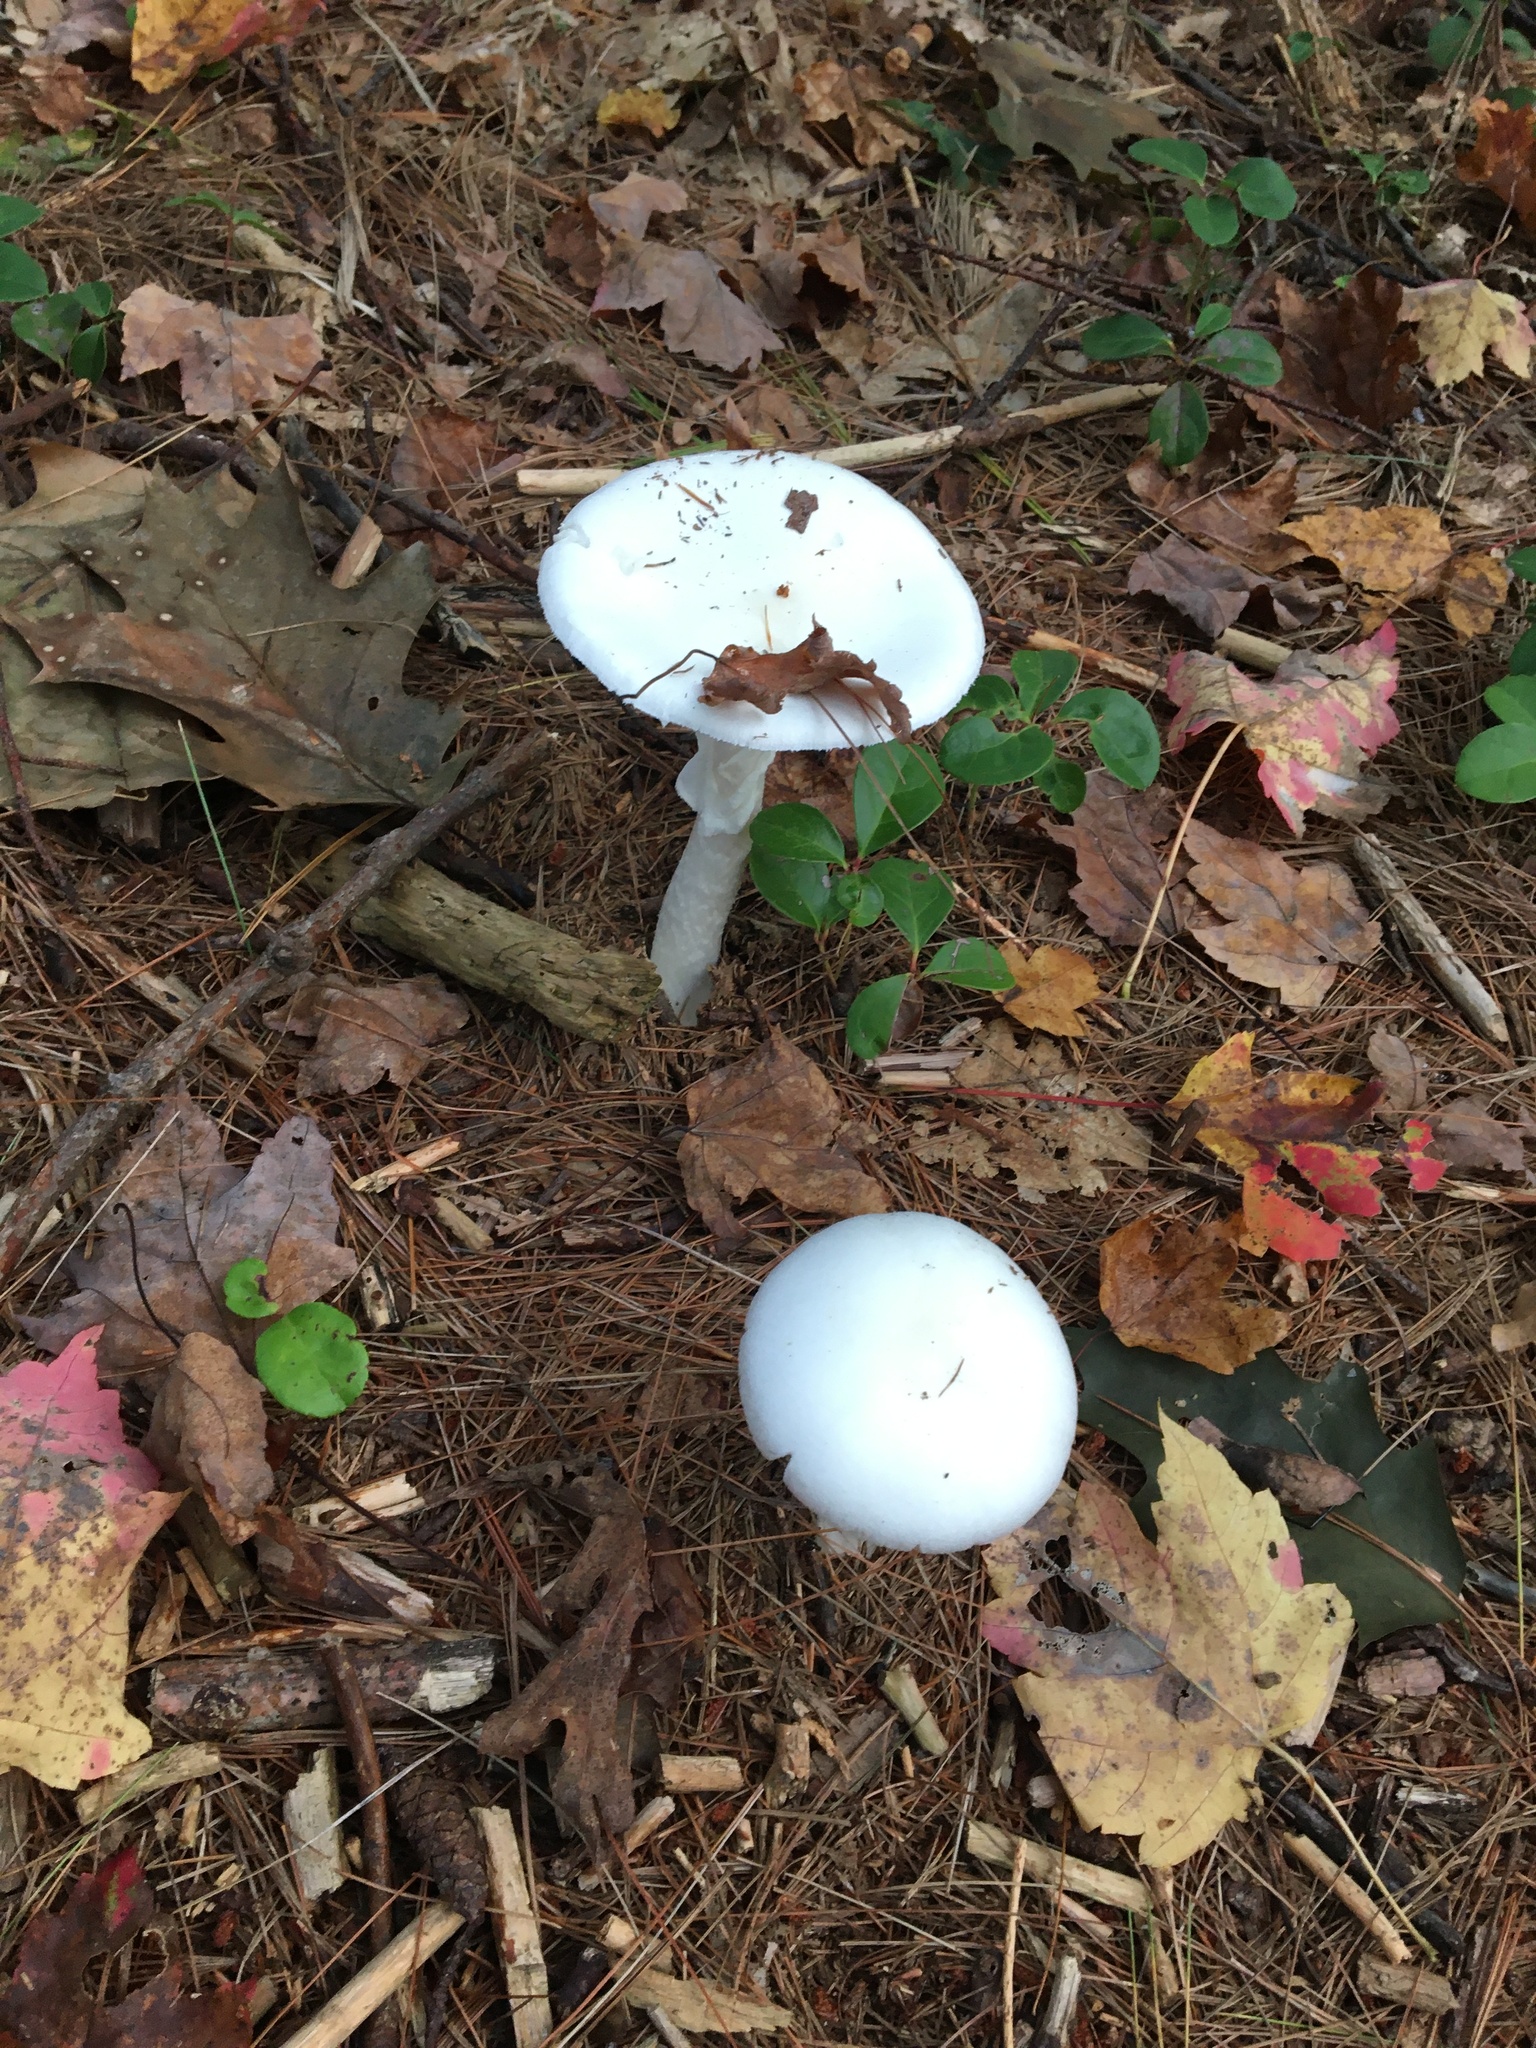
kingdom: Fungi
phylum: Basidiomycota
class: Agaricomycetes
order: Agaricales
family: Amanitaceae
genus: Amanita
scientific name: Amanita
